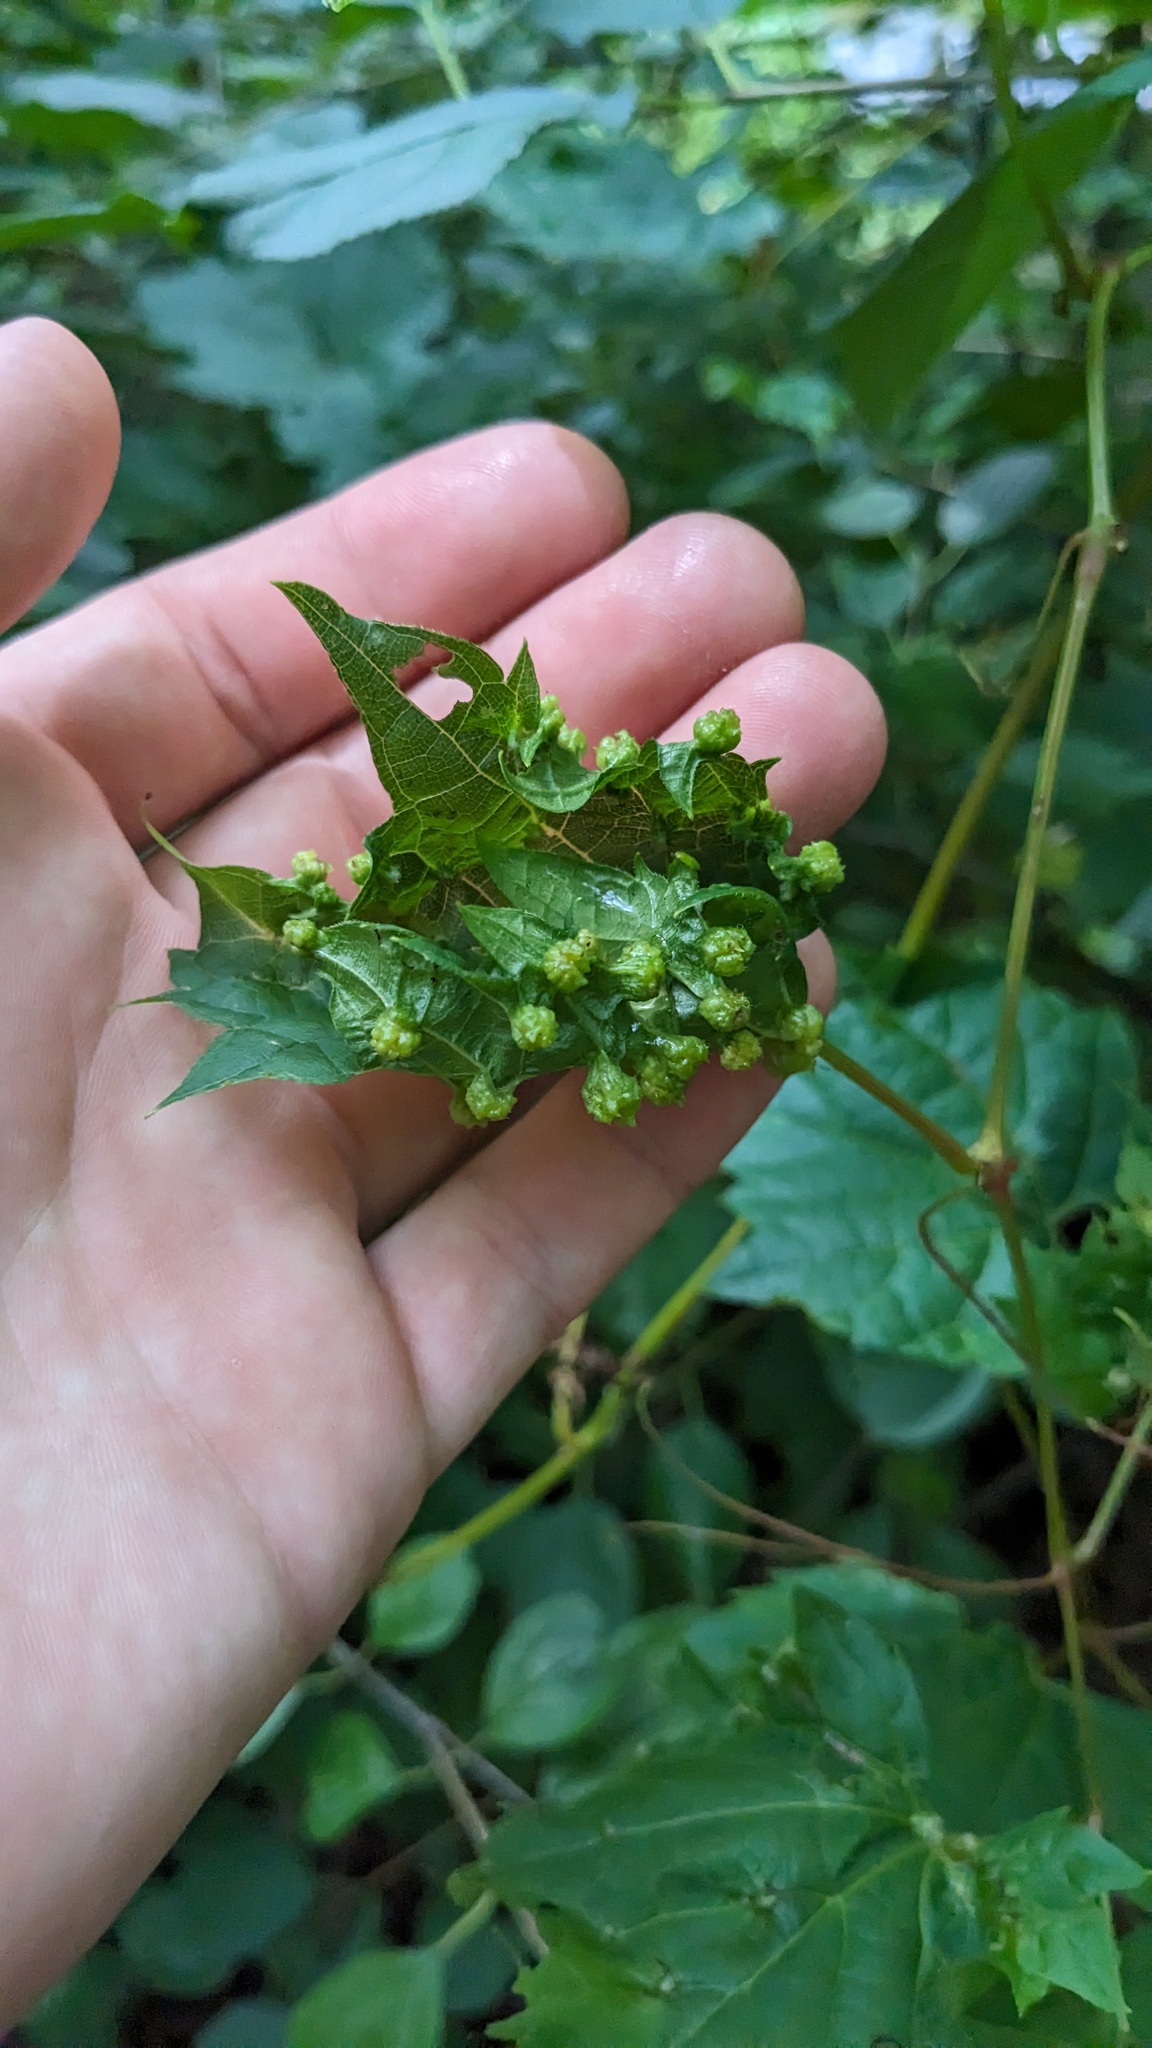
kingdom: Animalia
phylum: Arthropoda
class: Insecta
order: Hemiptera
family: Phylloxeridae
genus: Daktulosphaira
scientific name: Daktulosphaira vitifoliae
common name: Grape phylloxera
